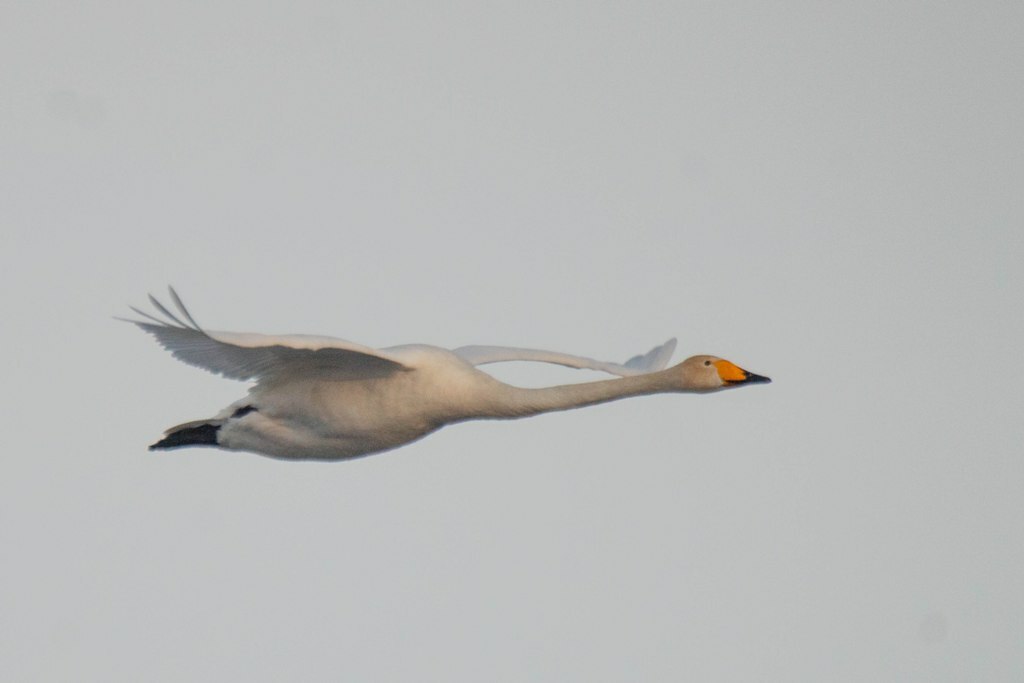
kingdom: Animalia
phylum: Chordata
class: Aves
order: Anseriformes
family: Anatidae
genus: Cygnus
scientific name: Cygnus cygnus
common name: Whooper swan
